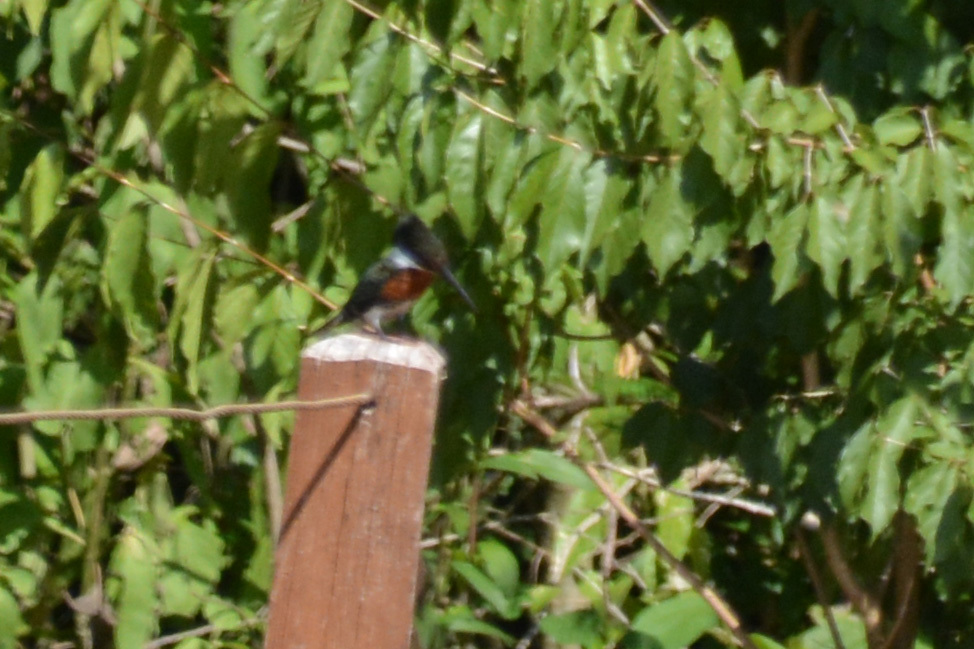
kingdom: Animalia
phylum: Chordata
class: Aves
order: Coraciiformes
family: Alcedinidae
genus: Chloroceryle
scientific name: Chloroceryle americana
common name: Green kingfisher
